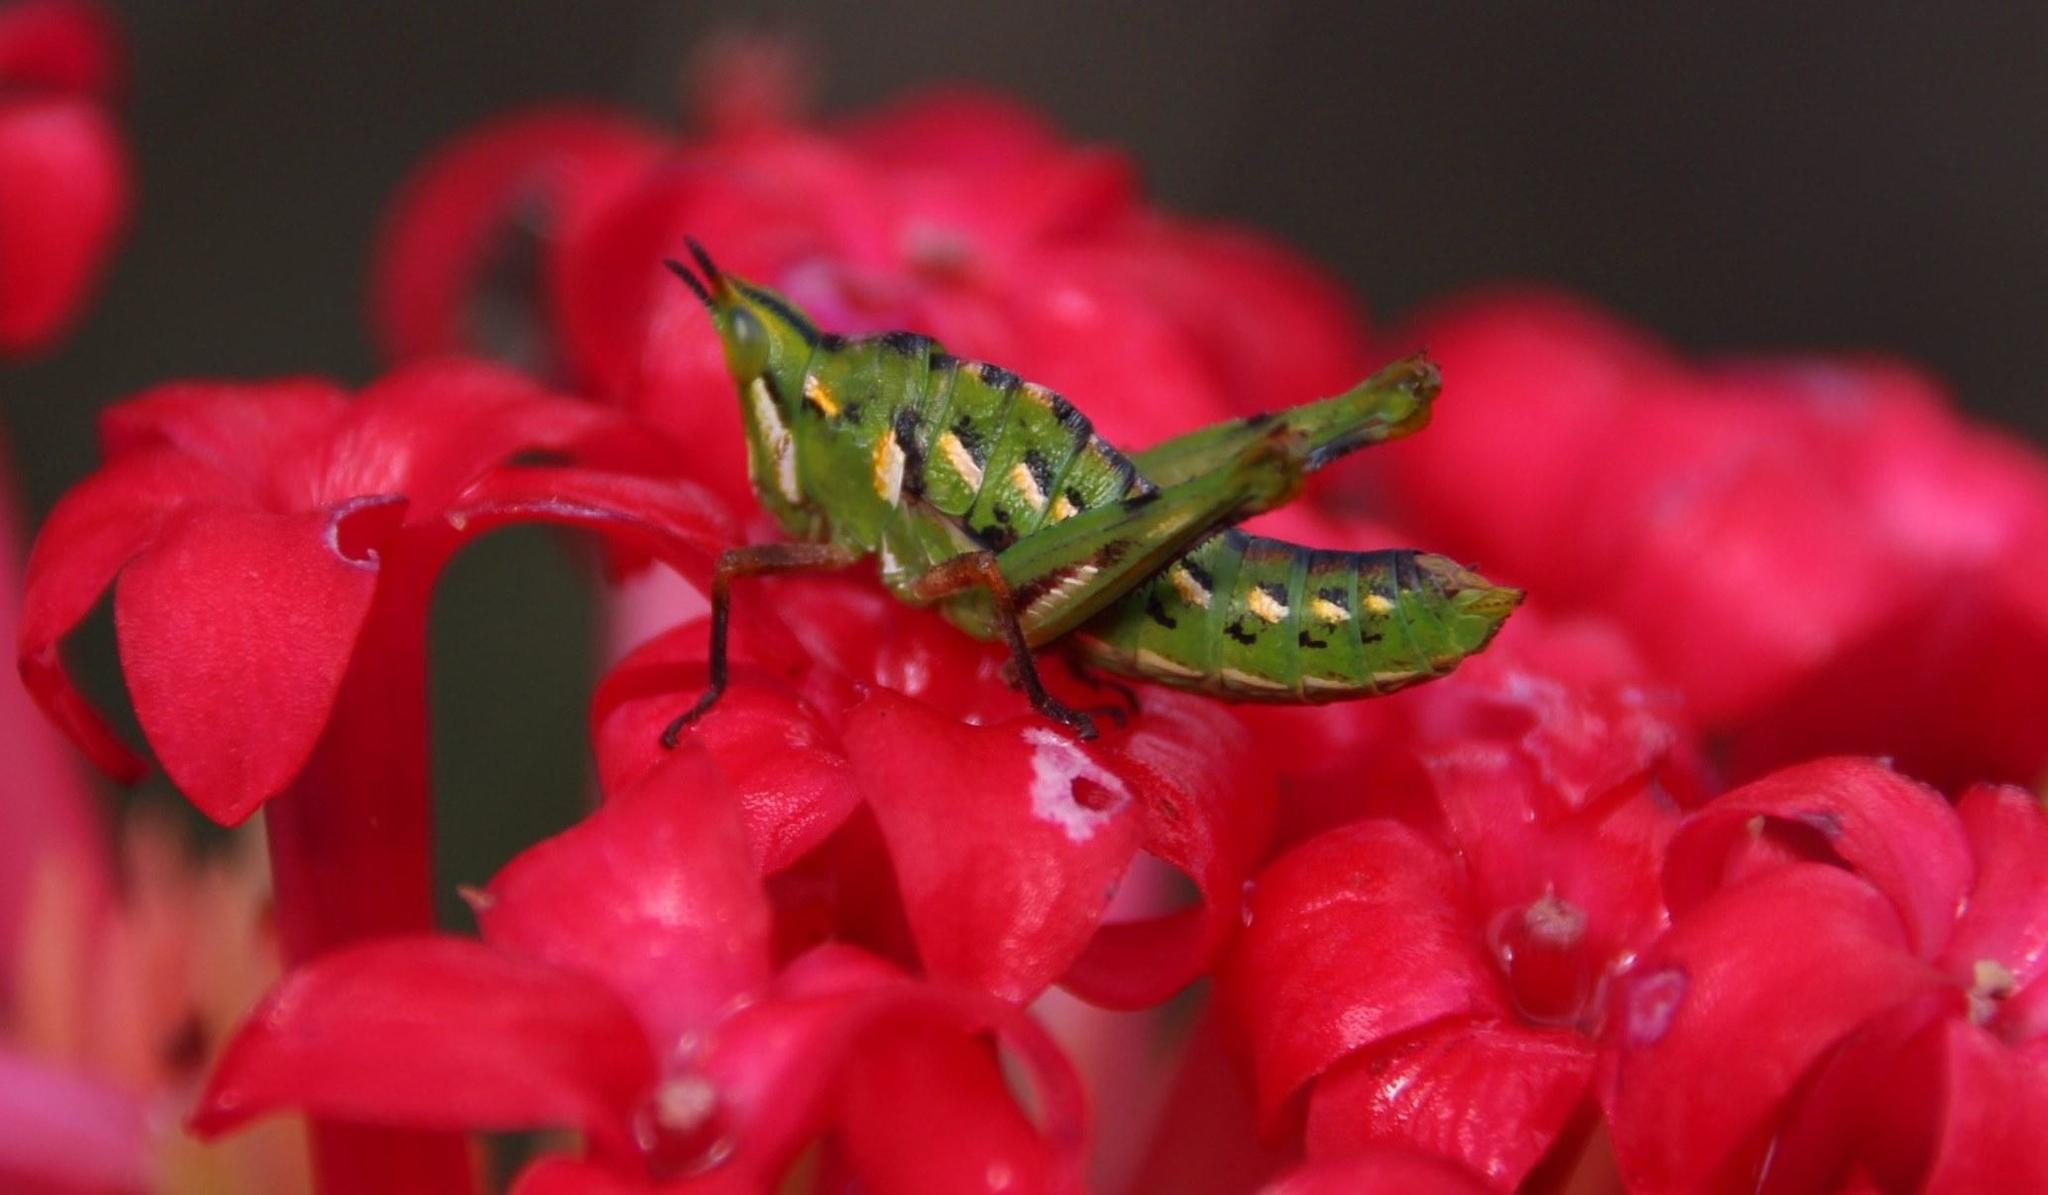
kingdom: Animalia
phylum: Arthropoda
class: Insecta
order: Orthoptera
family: Thericleidae
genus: Thericlesiella
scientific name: Thericlesiella meridionalis
